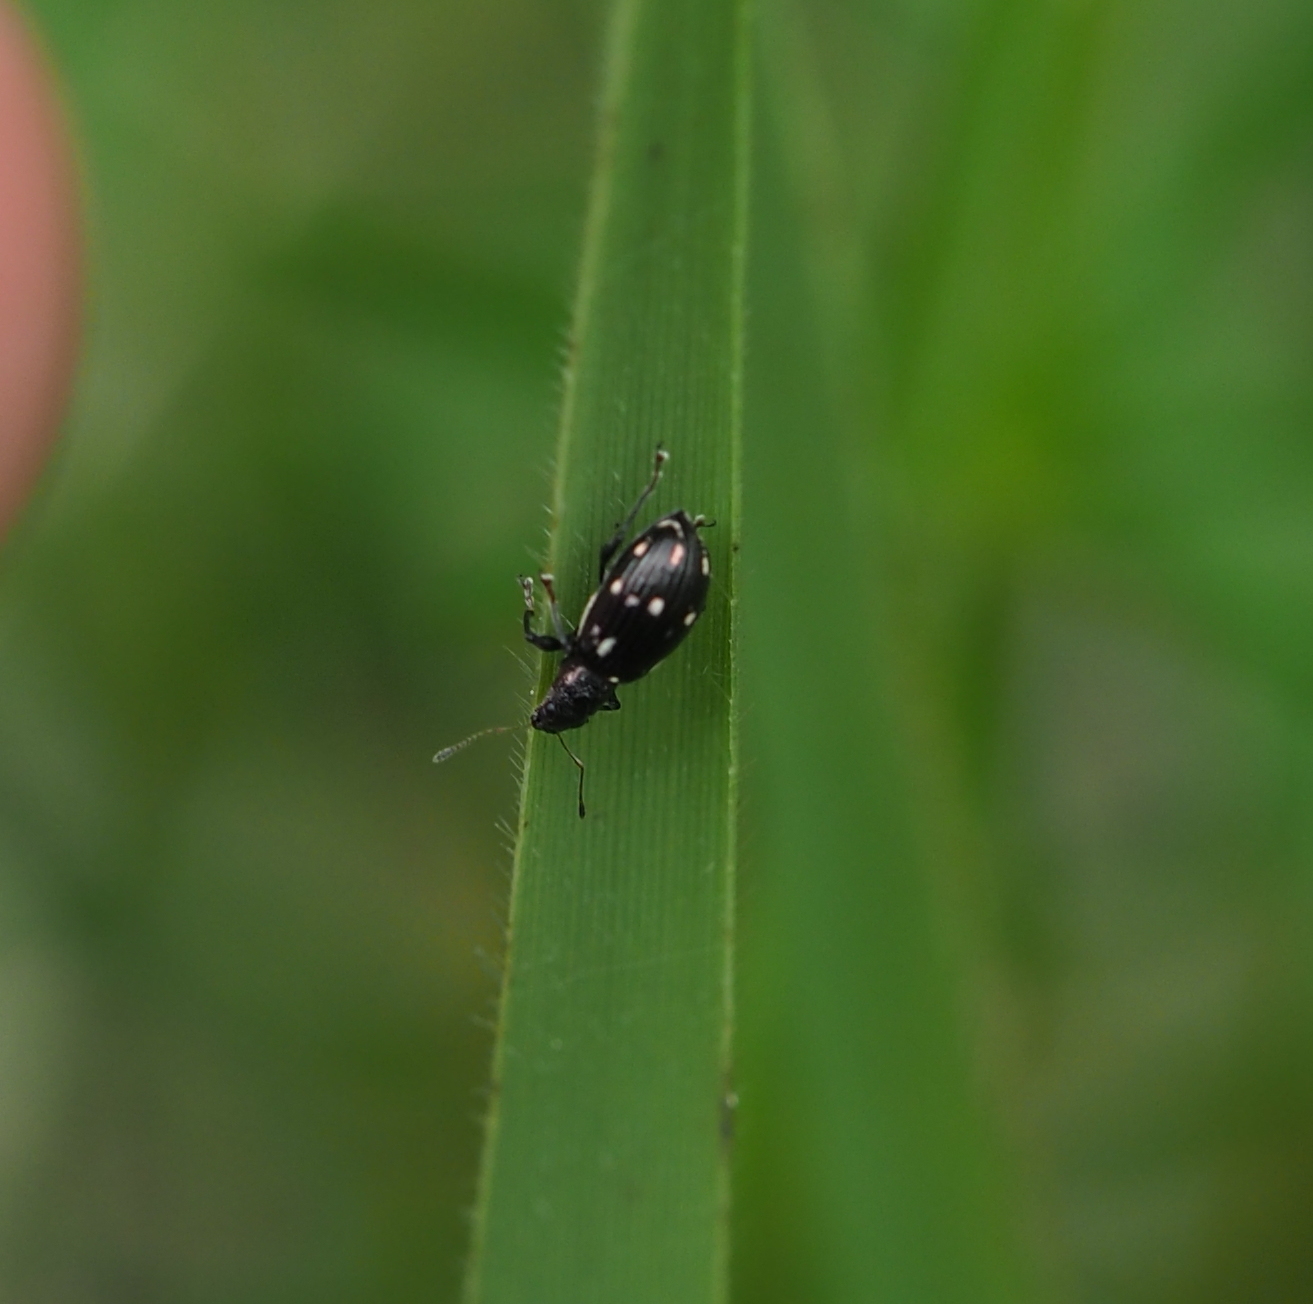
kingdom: Animalia
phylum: Arthropoda
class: Insecta
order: Coleoptera
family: Curculionidae
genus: Polydrusus
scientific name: Polydrusus picus
